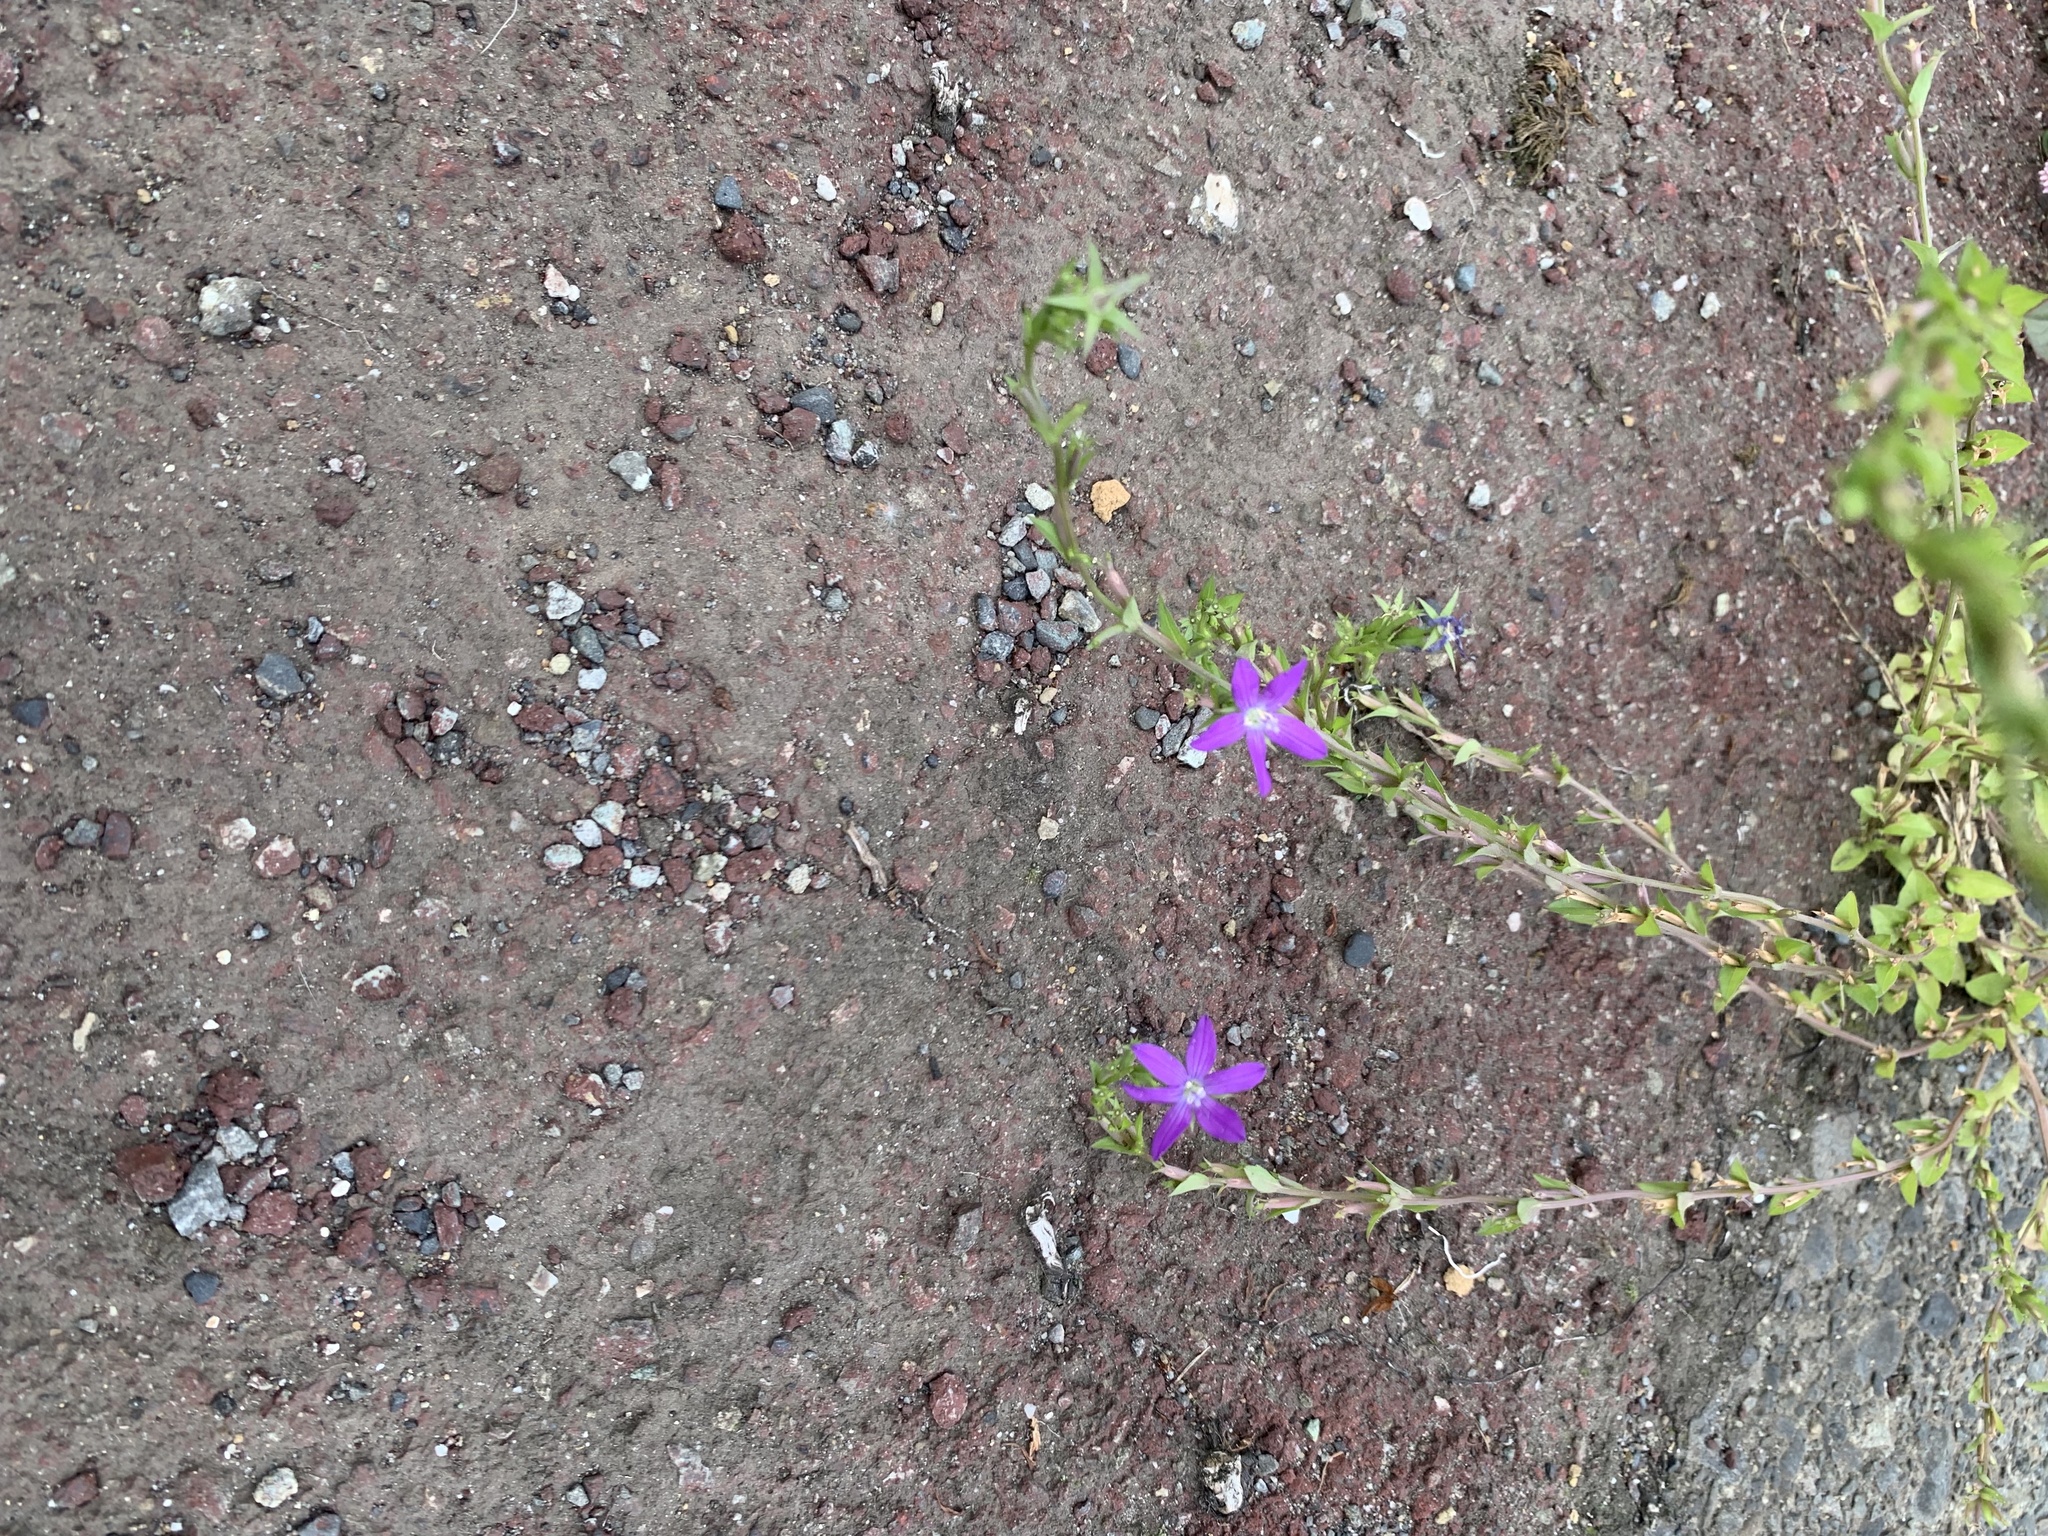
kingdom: Plantae
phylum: Tracheophyta
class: Magnoliopsida
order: Asterales
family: Campanulaceae
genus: Triodanis
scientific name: Triodanis biflora
